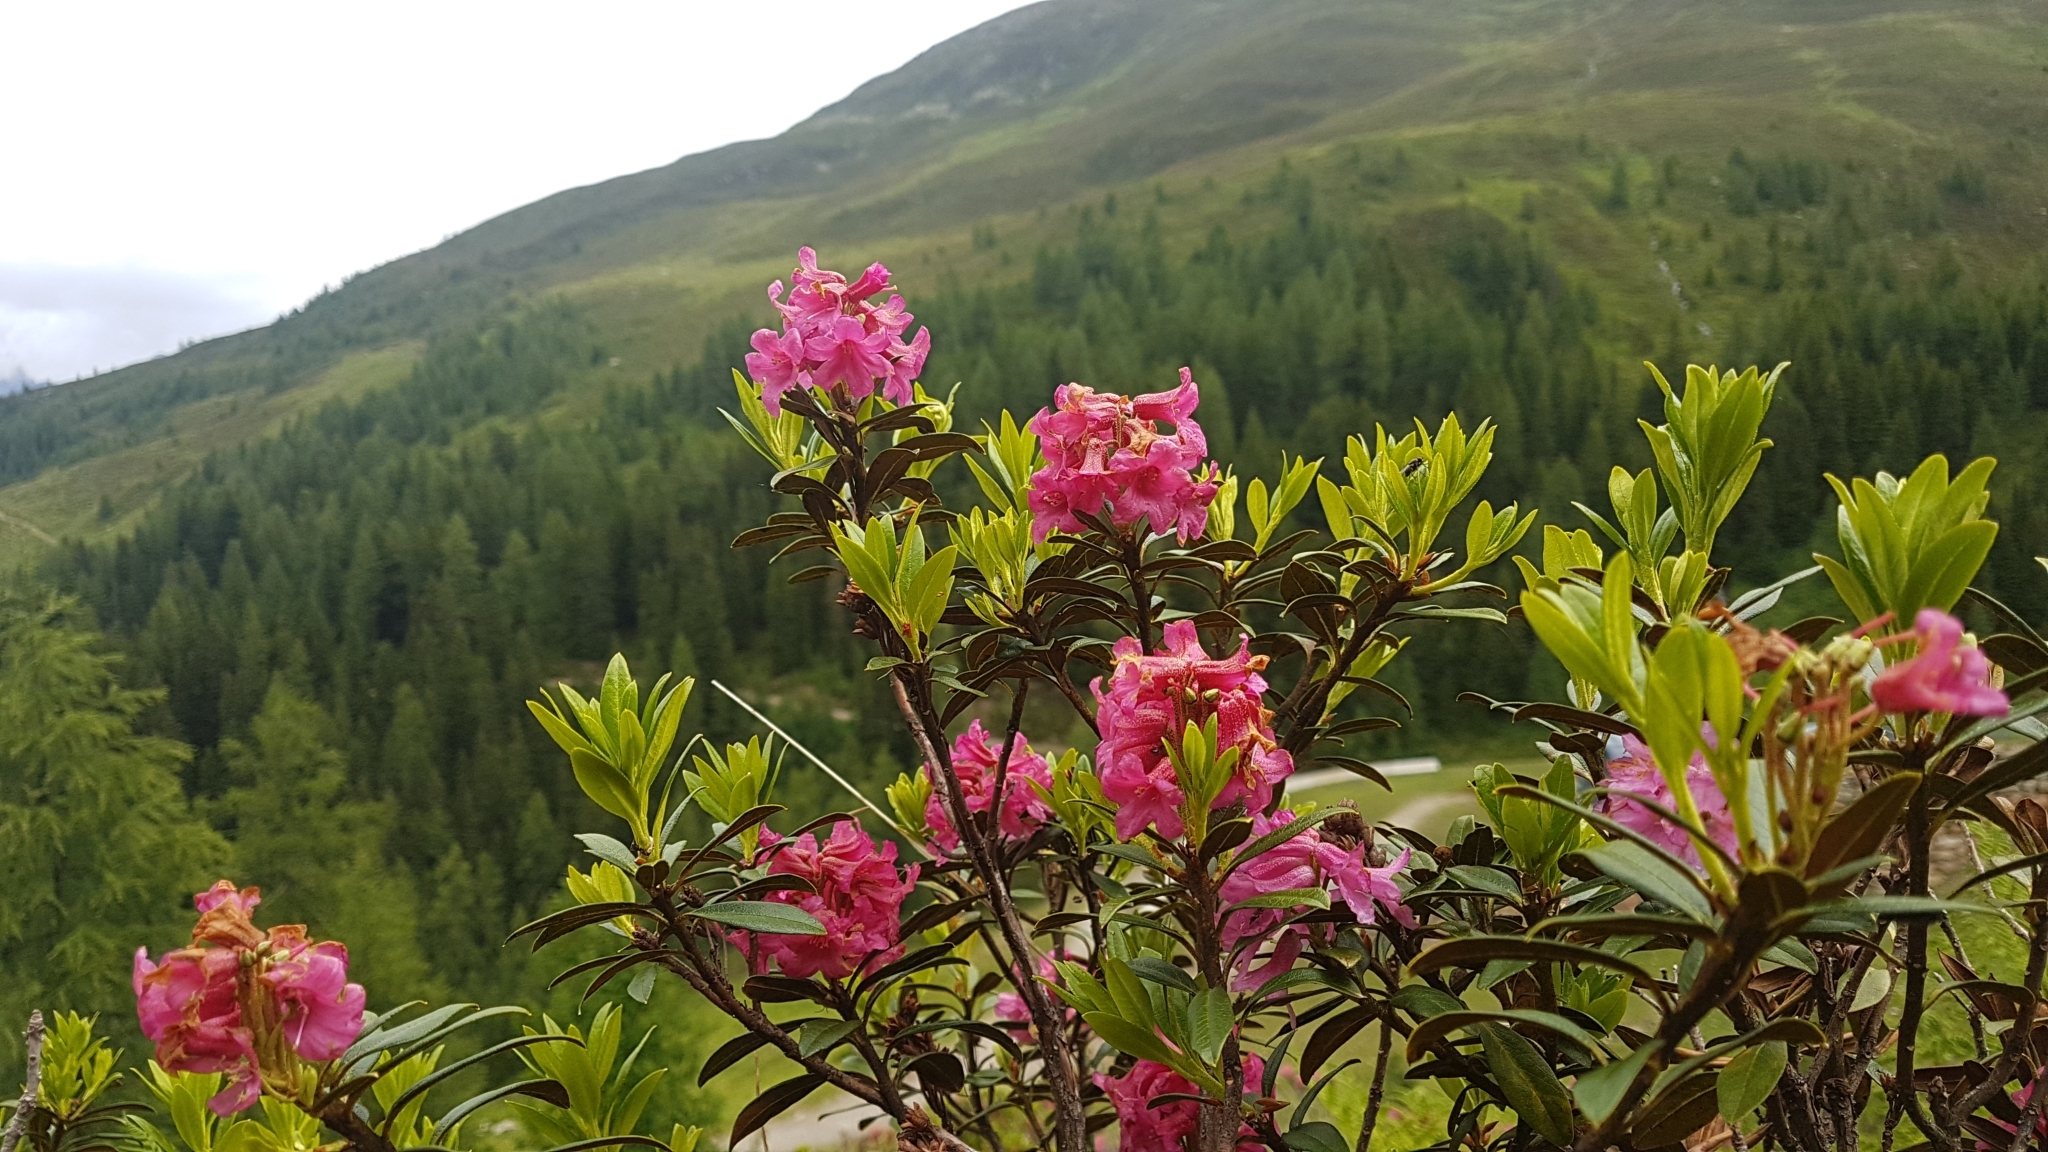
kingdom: Plantae
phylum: Tracheophyta
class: Magnoliopsida
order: Ericales
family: Ericaceae
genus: Rhododendron
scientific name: Rhododendron ferrugineum
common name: Alpenrose
